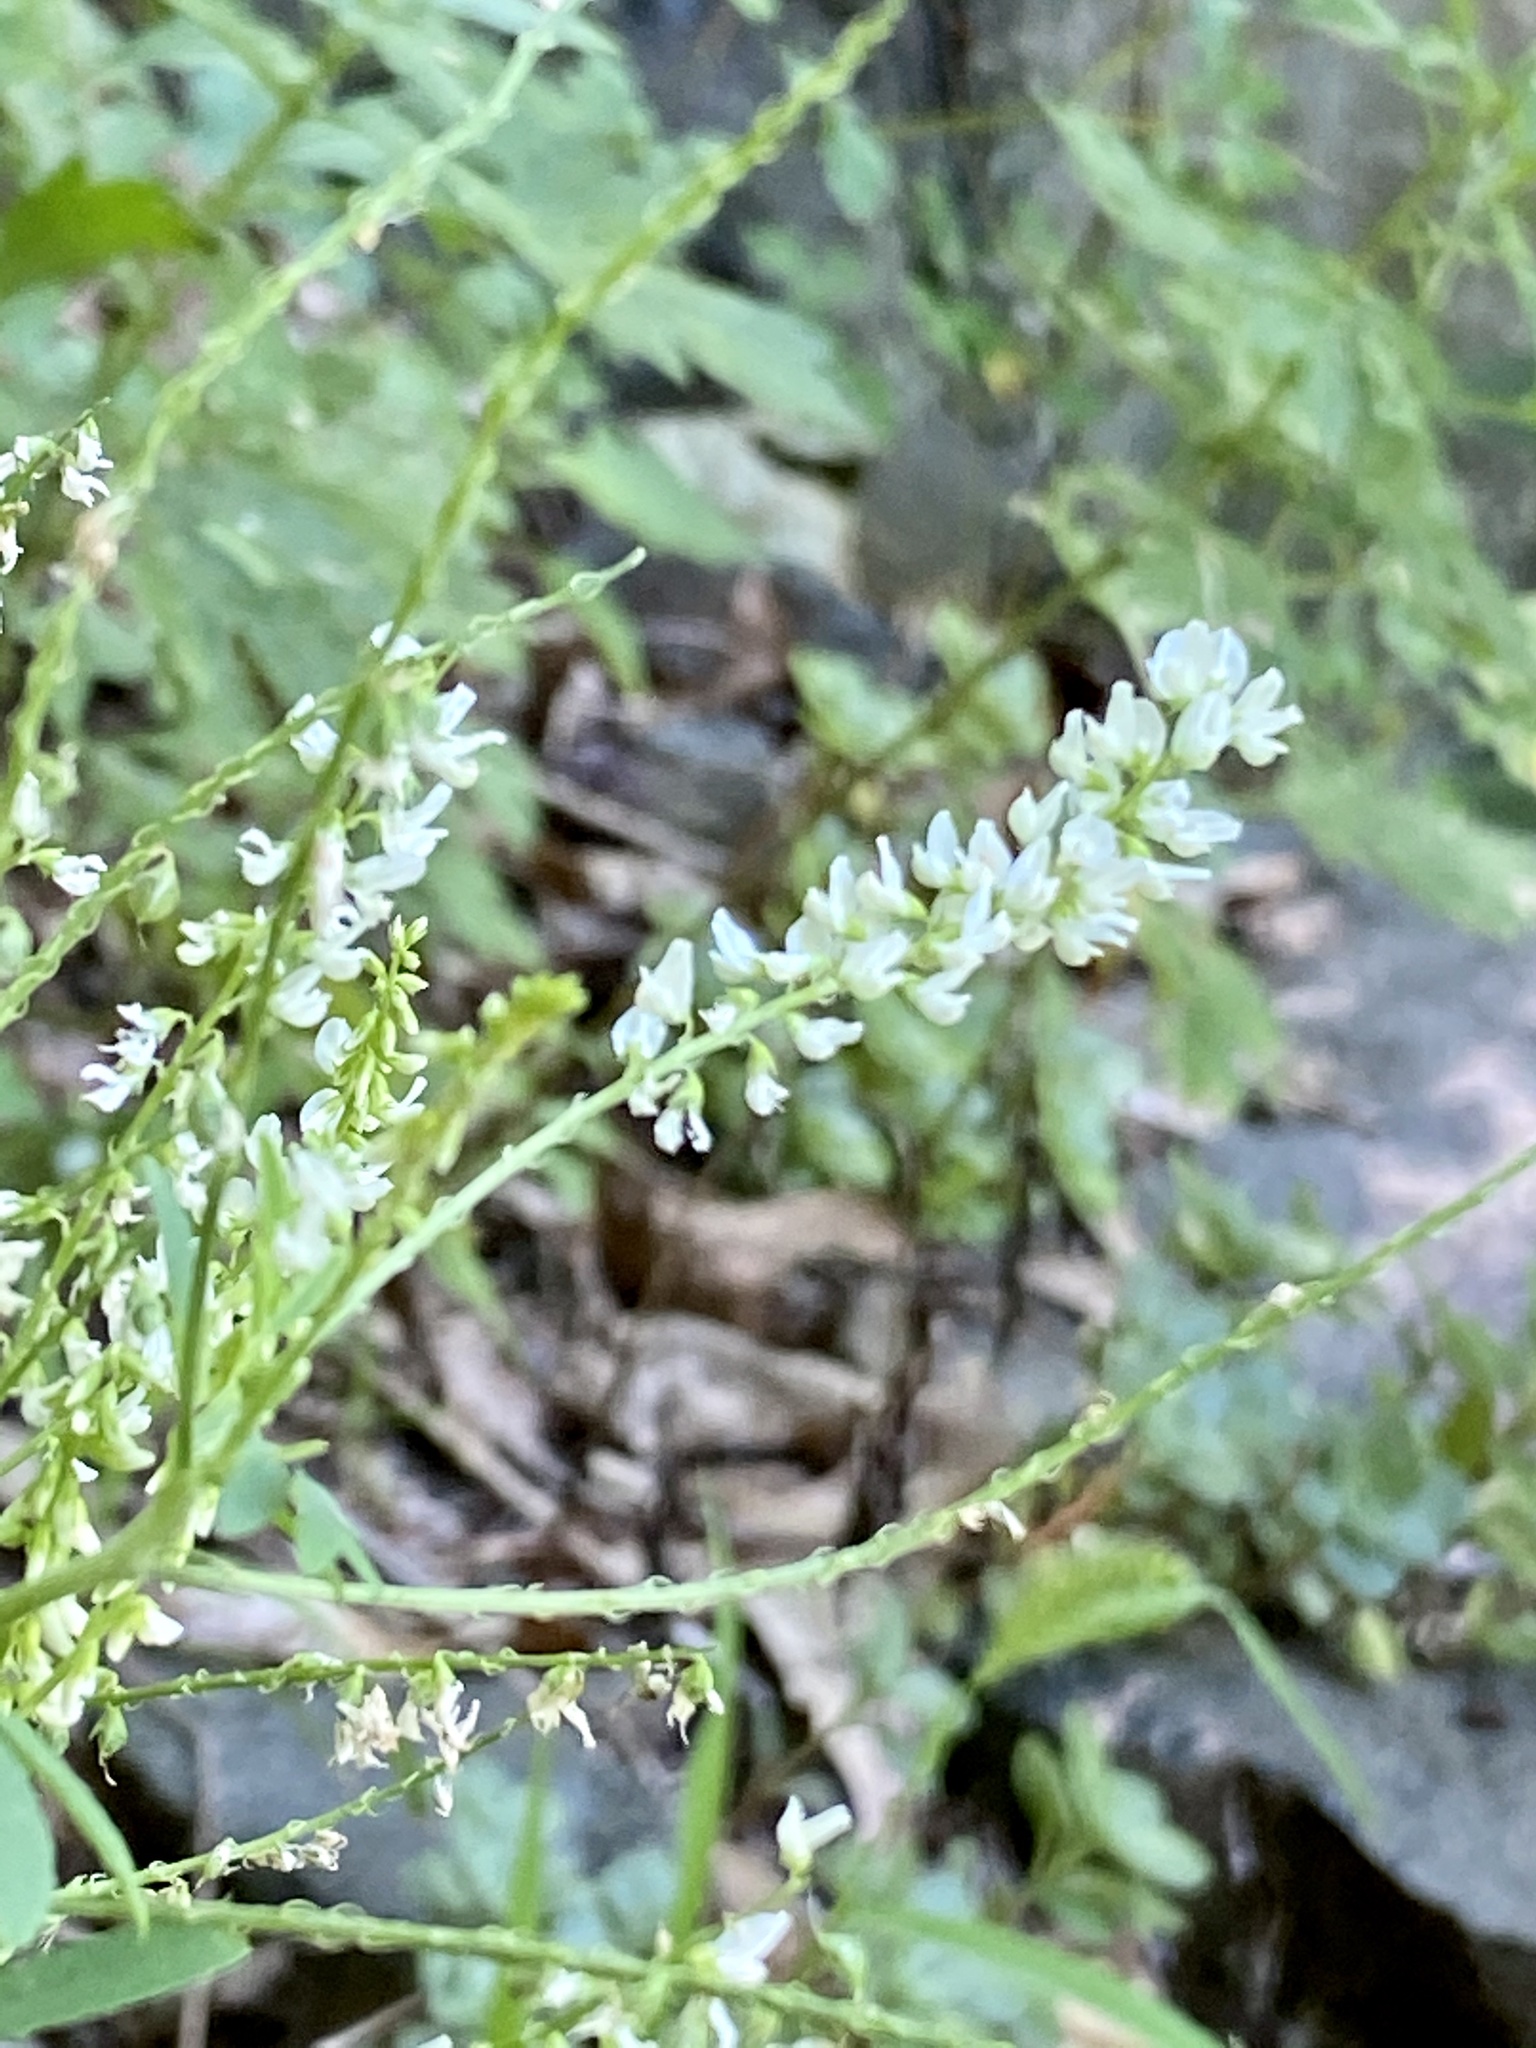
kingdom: Plantae
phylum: Tracheophyta
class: Magnoliopsida
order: Fabales
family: Fabaceae
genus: Melilotus
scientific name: Melilotus albus
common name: White melilot
